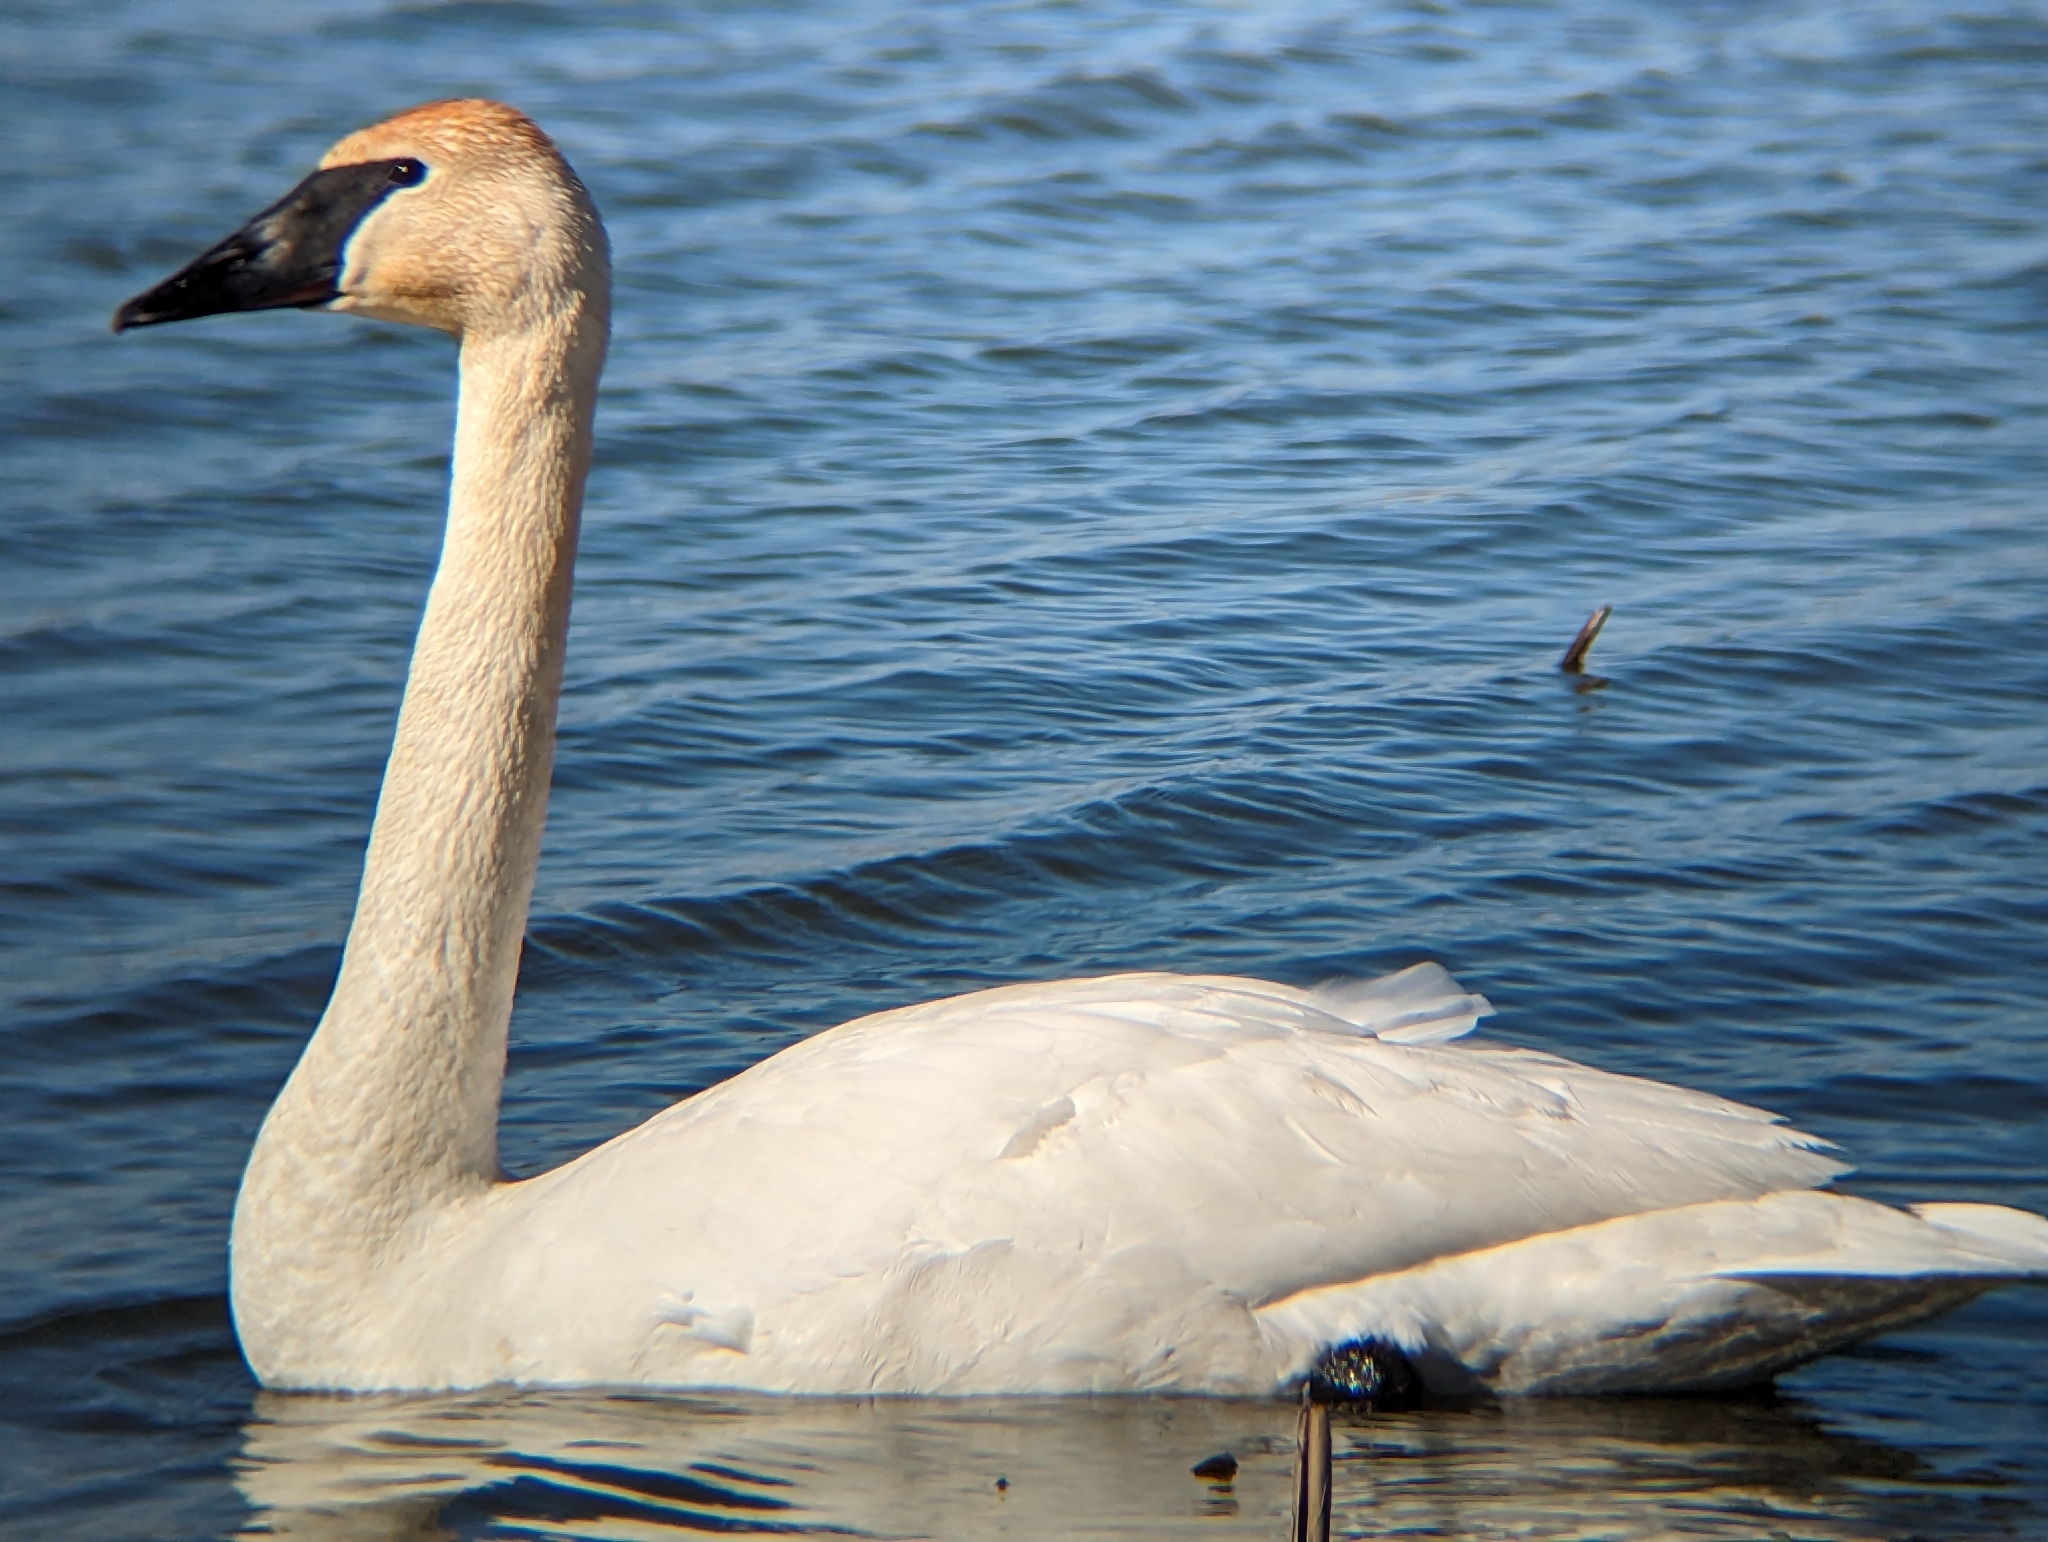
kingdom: Animalia
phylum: Chordata
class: Aves
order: Anseriformes
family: Anatidae
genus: Cygnus
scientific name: Cygnus buccinator
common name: Trumpeter swan
